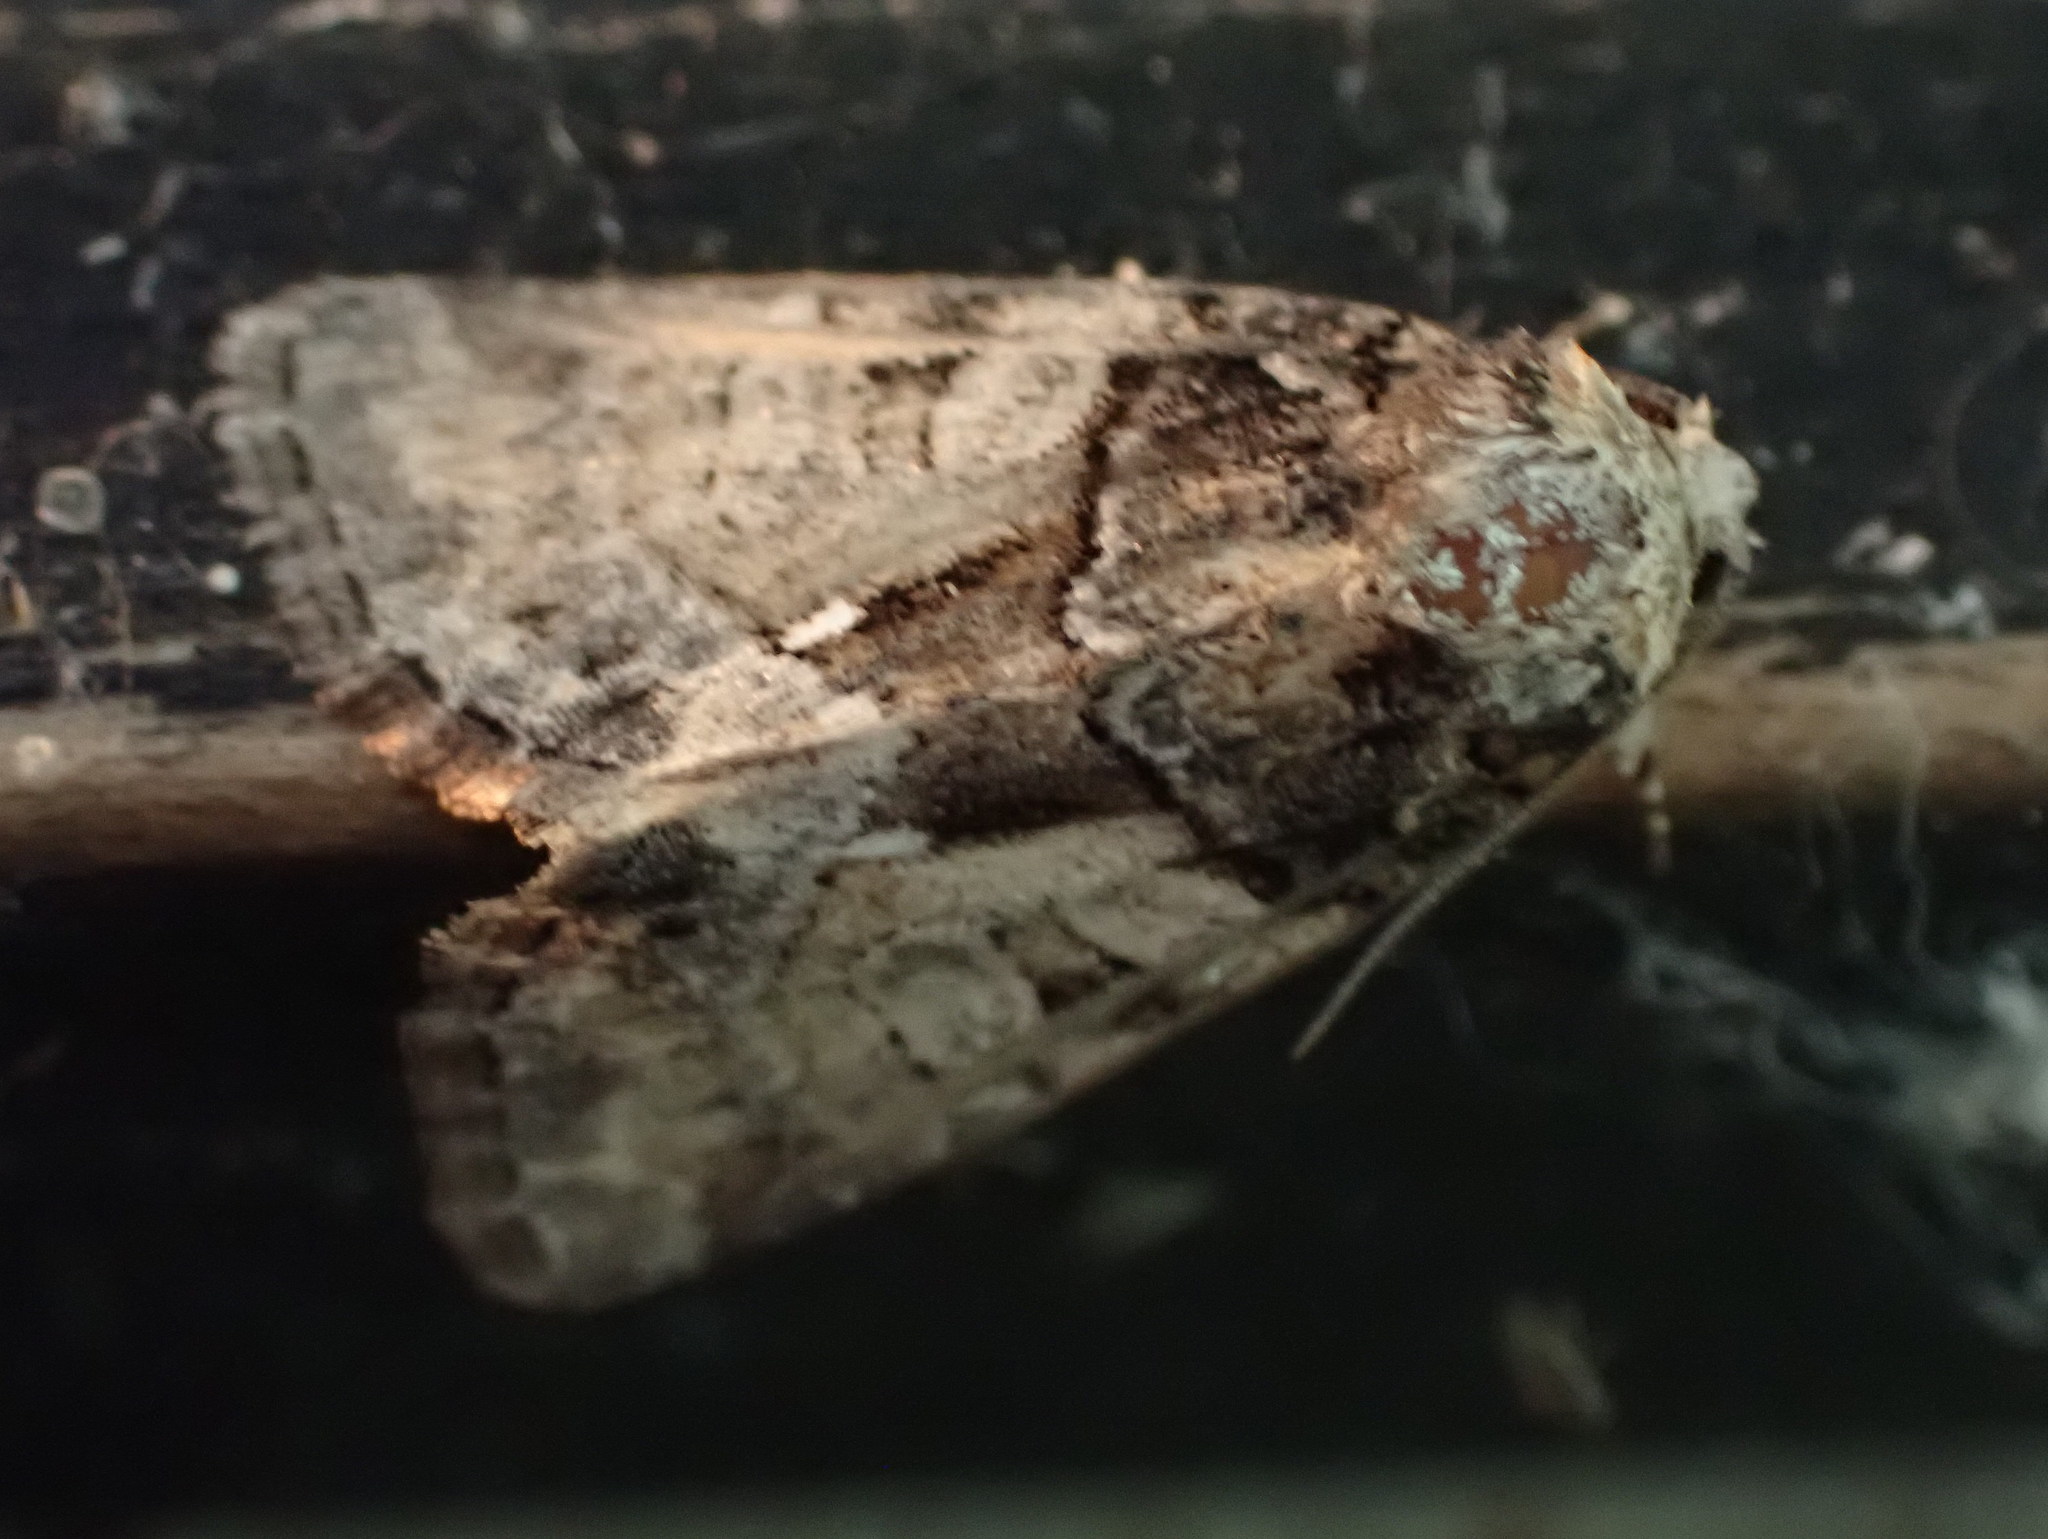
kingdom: Animalia
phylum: Arthropoda
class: Insecta
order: Lepidoptera
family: Noctuidae
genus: Chytonix
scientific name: Chytonix palliatricula
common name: Cloaked marvel
